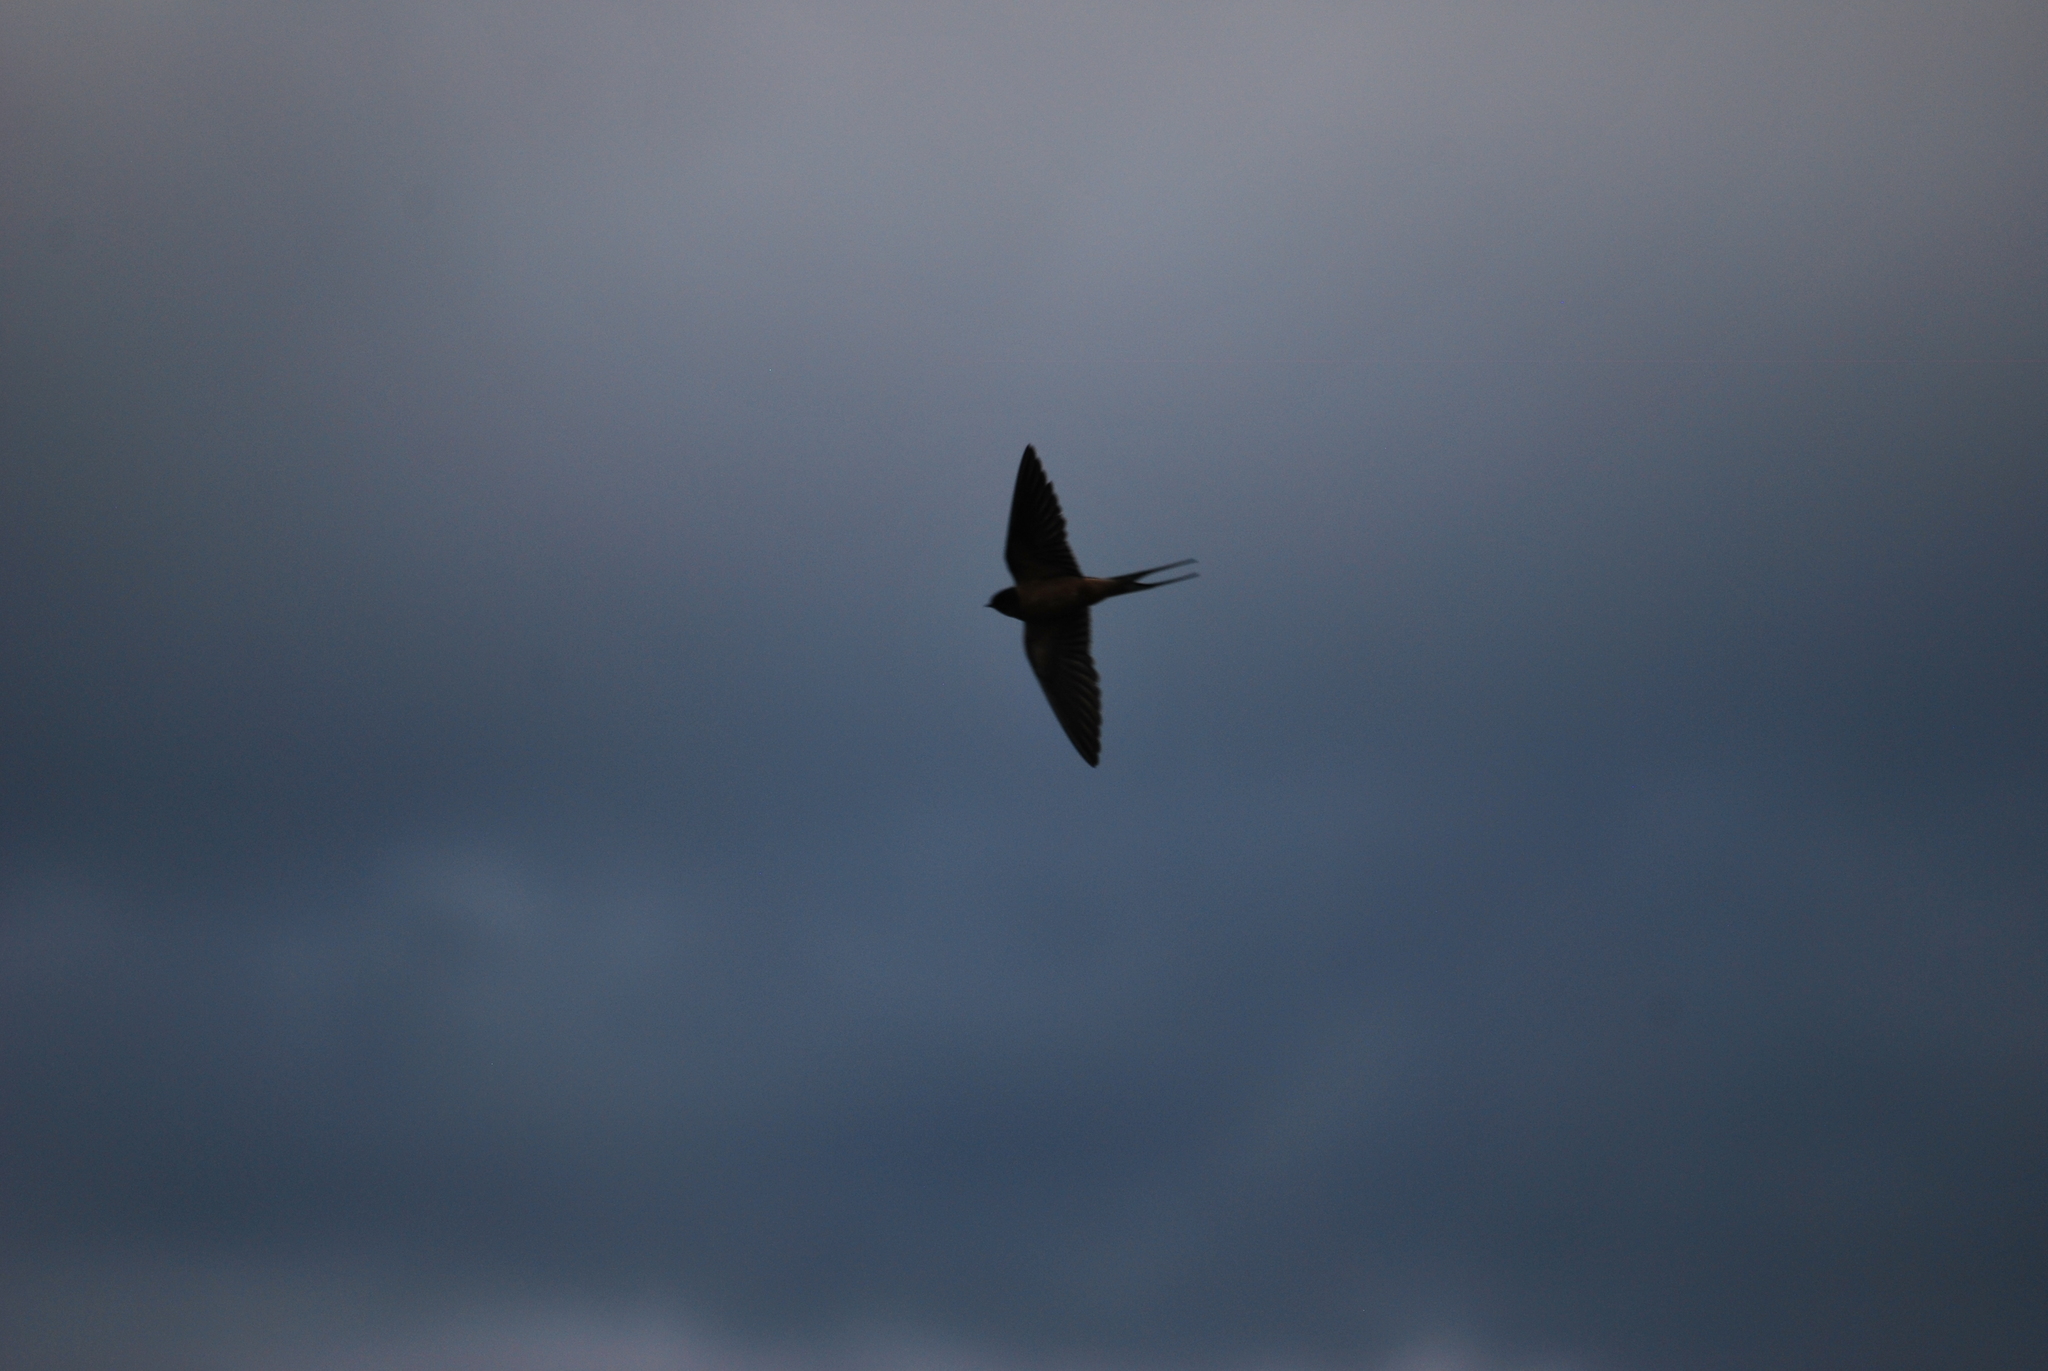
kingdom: Animalia
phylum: Chordata
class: Aves
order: Passeriformes
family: Hirundinidae
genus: Hirundo
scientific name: Hirundo rustica
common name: Barn swallow
